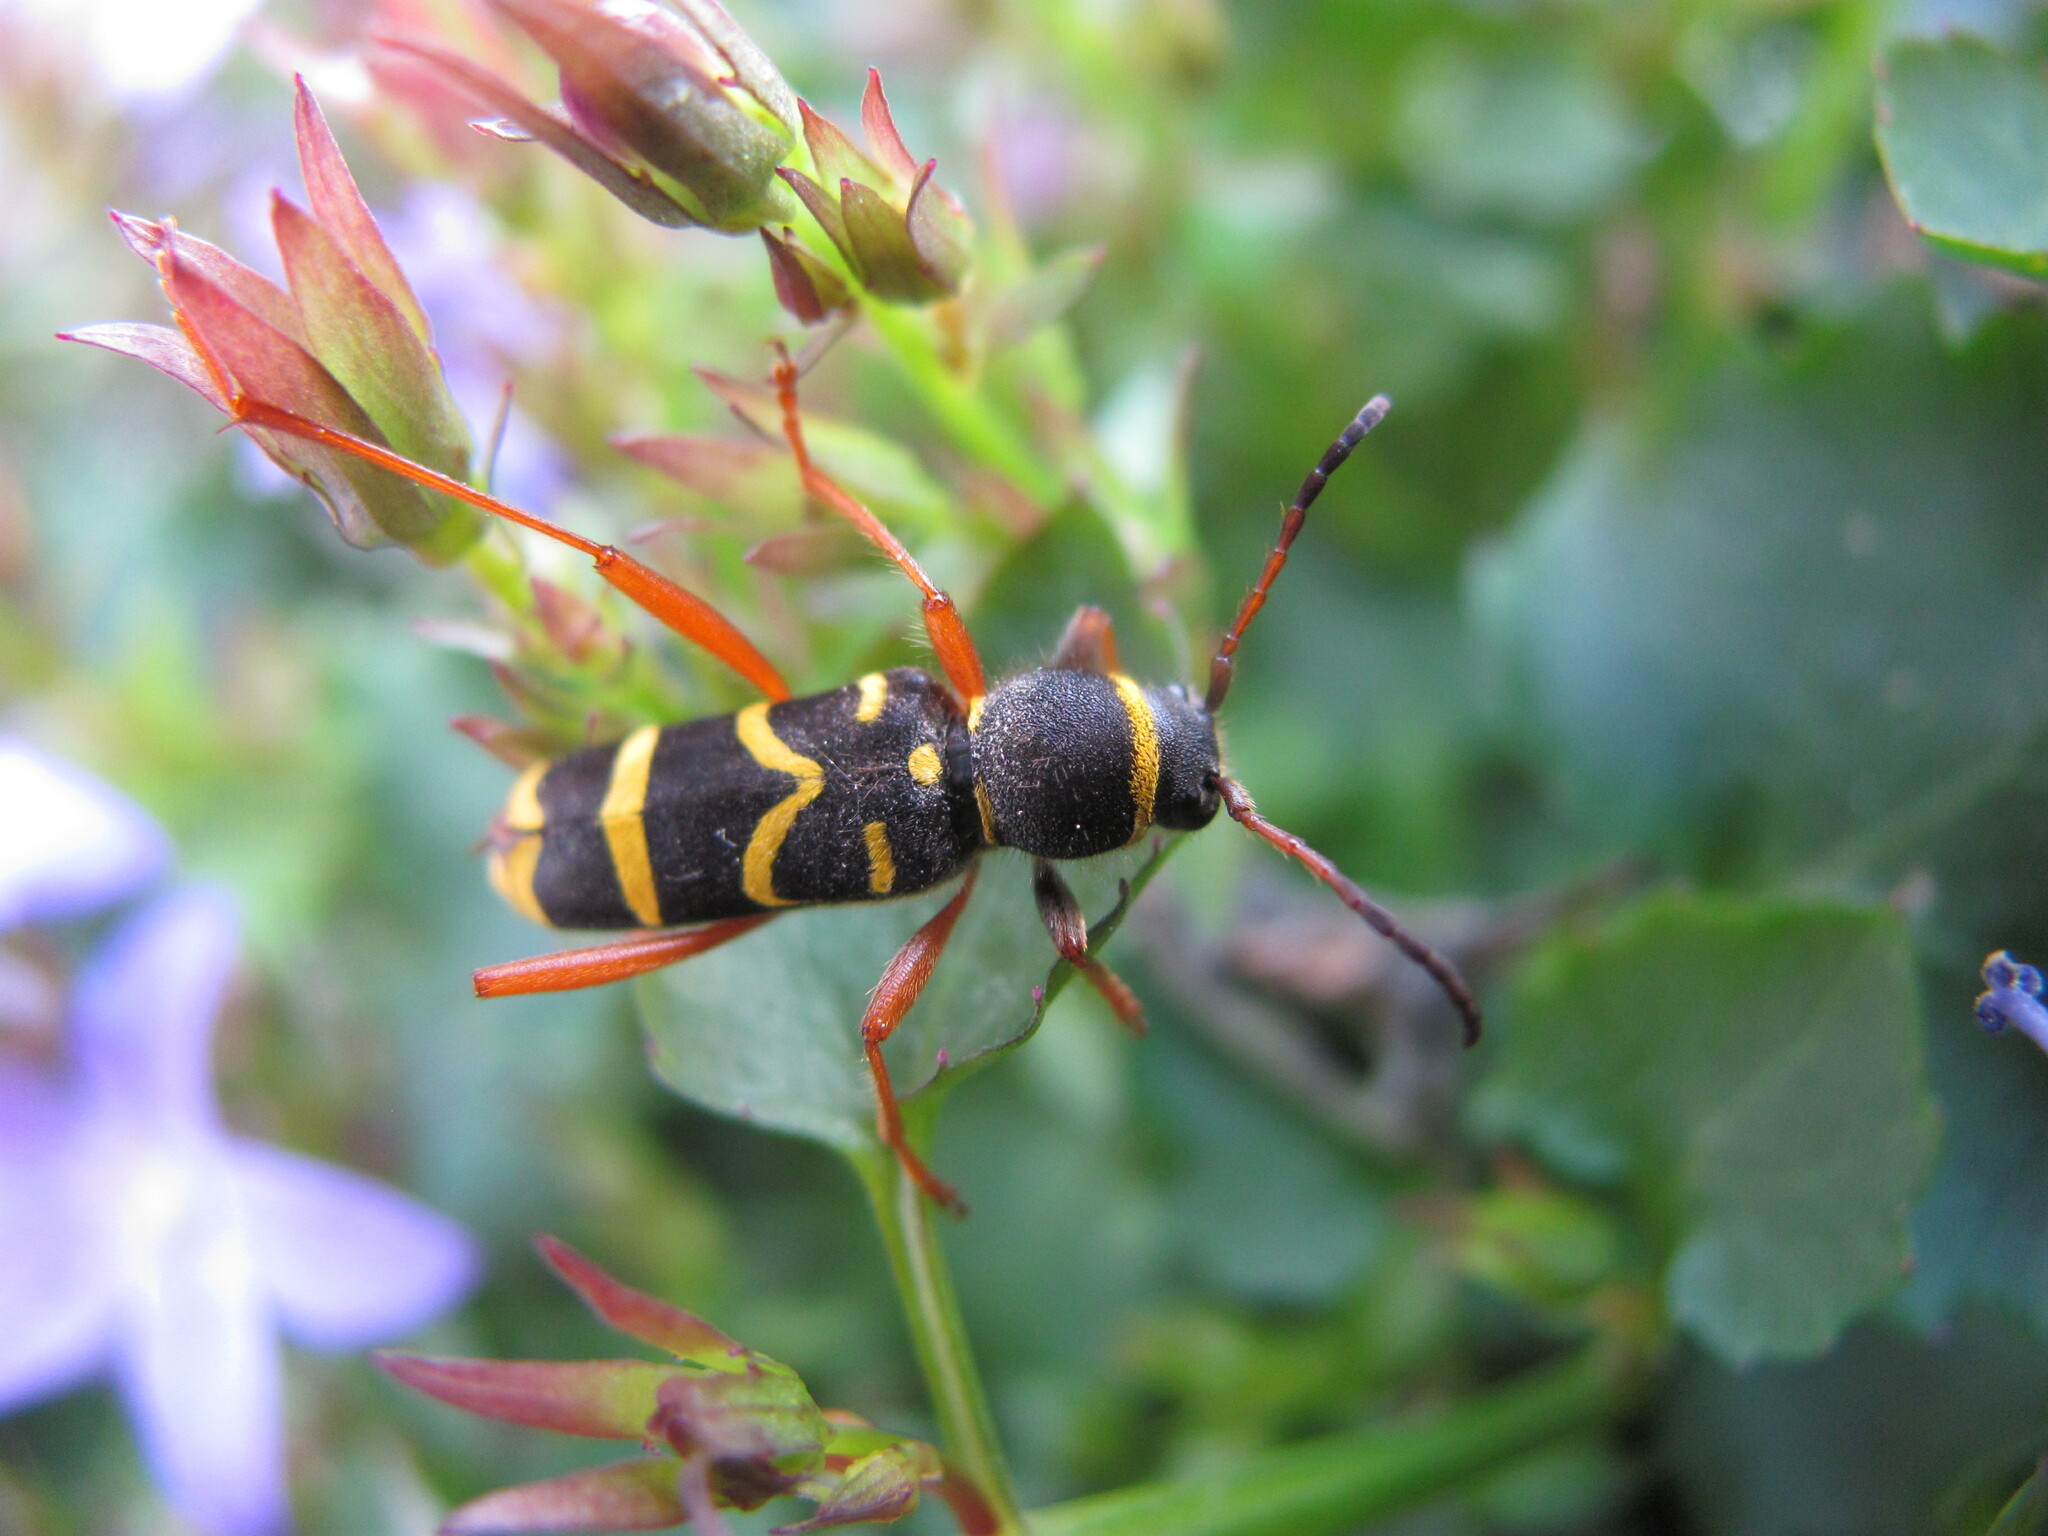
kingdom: Animalia
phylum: Arthropoda
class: Insecta
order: Coleoptera
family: Cerambycidae
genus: Clytus
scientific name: Clytus arietis
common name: Wasp beetle
